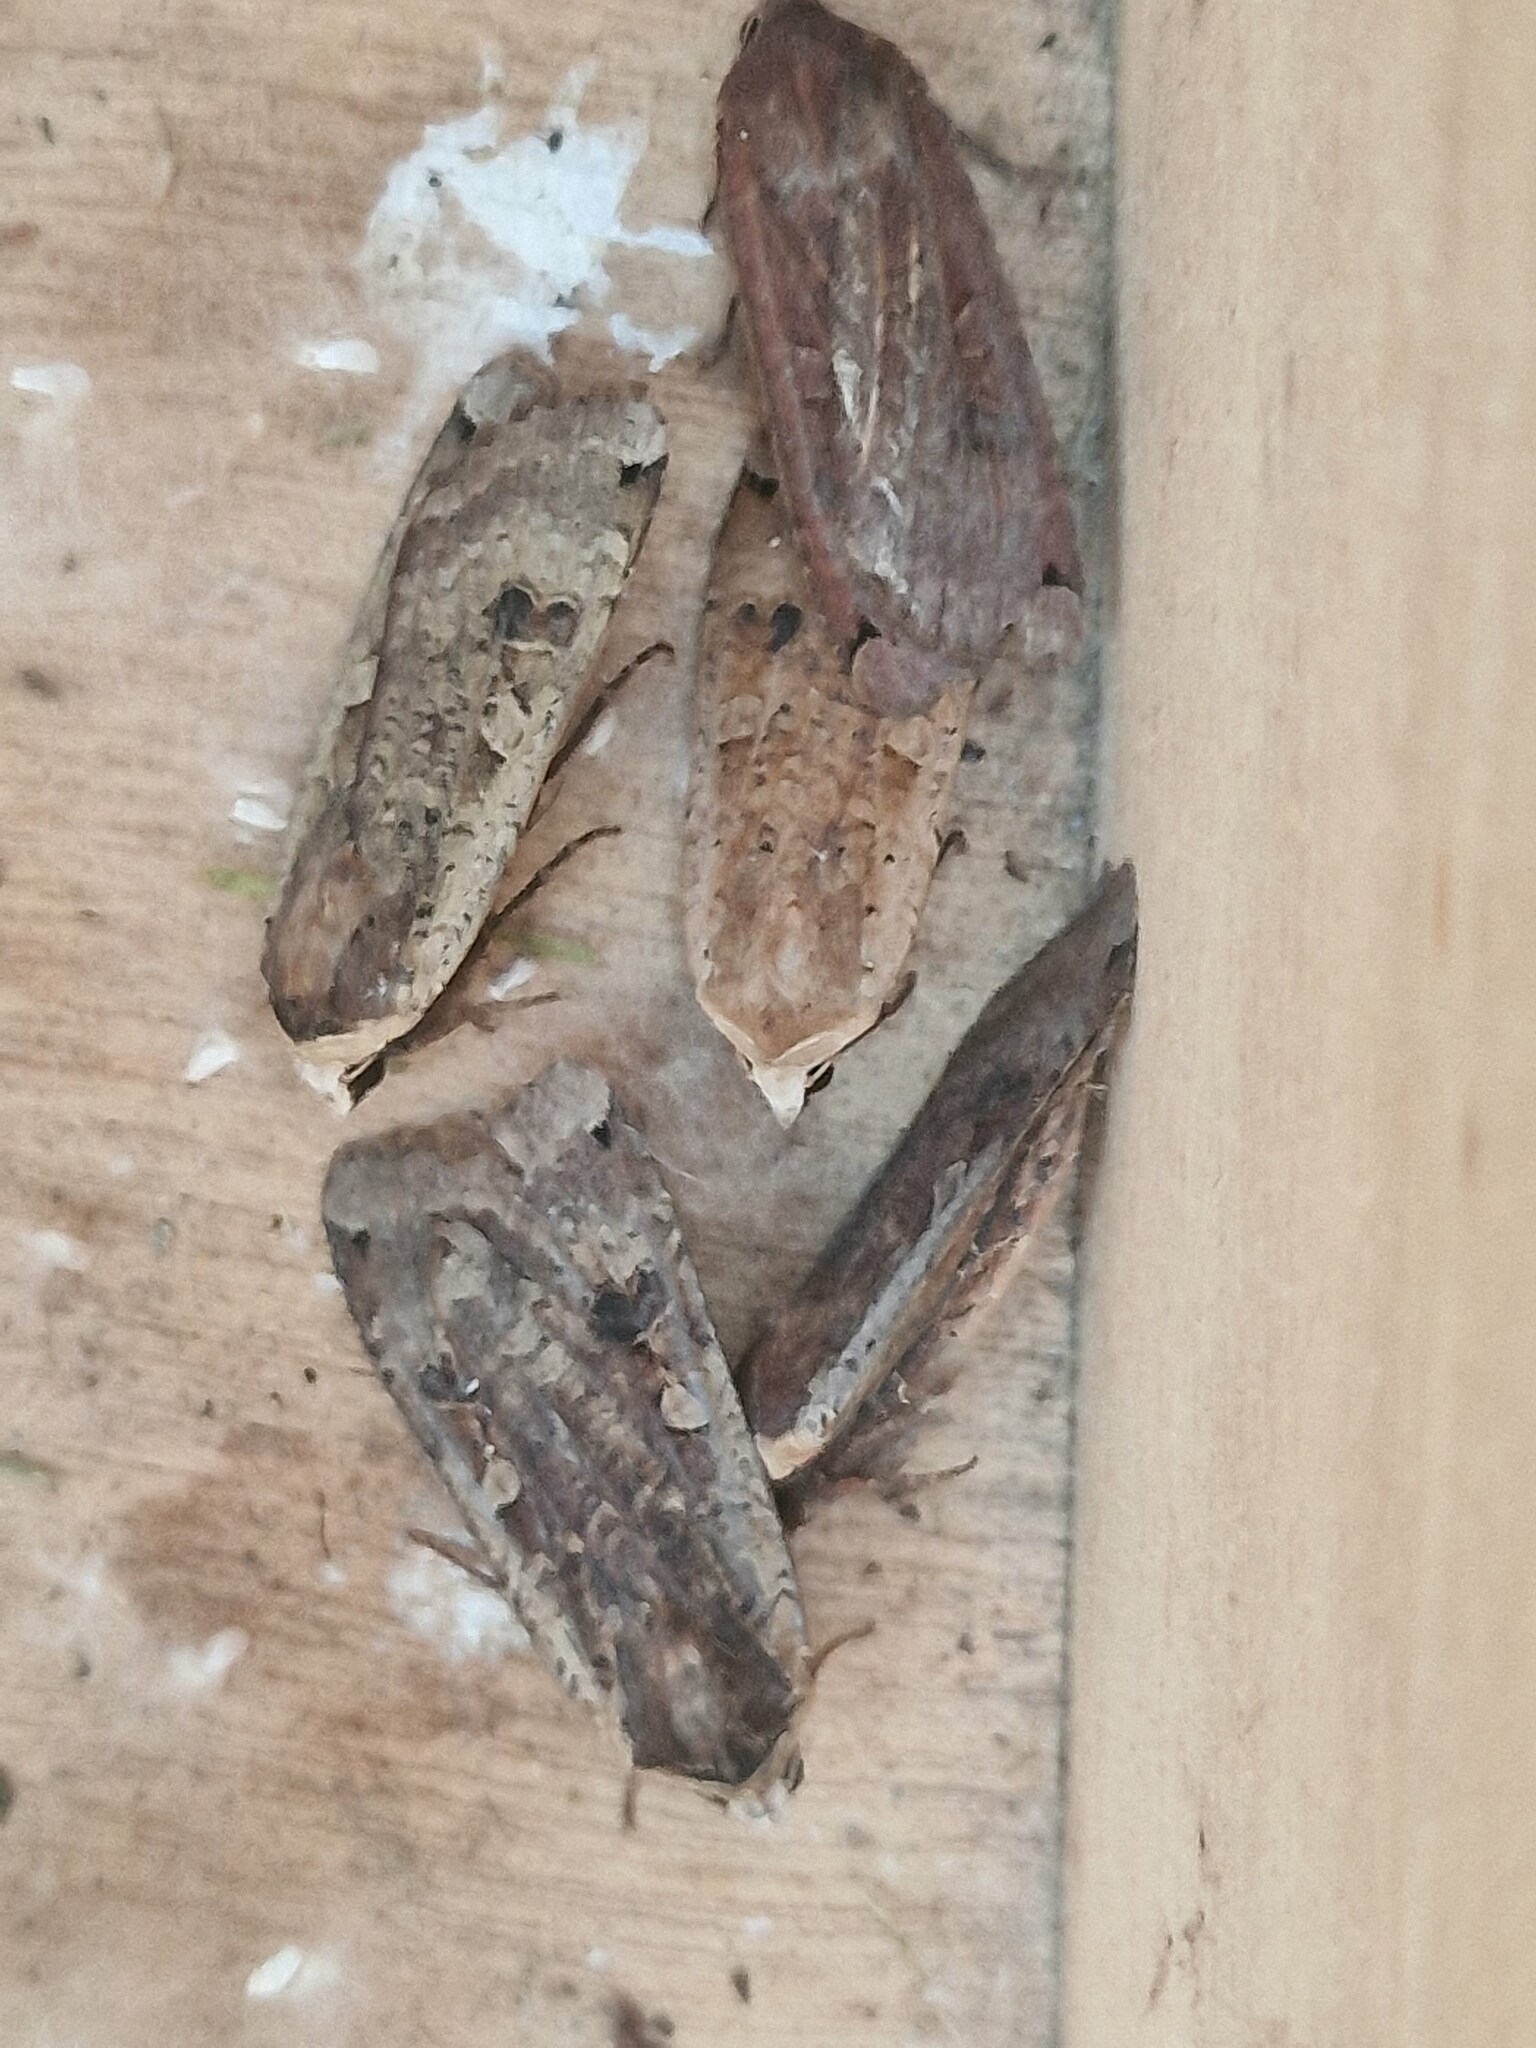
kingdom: Animalia
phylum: Arthropoda
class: Insecta
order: Lepidoptera
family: Noctuidae
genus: Noctua
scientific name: Noctua pronuba
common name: Large yellow underwing
